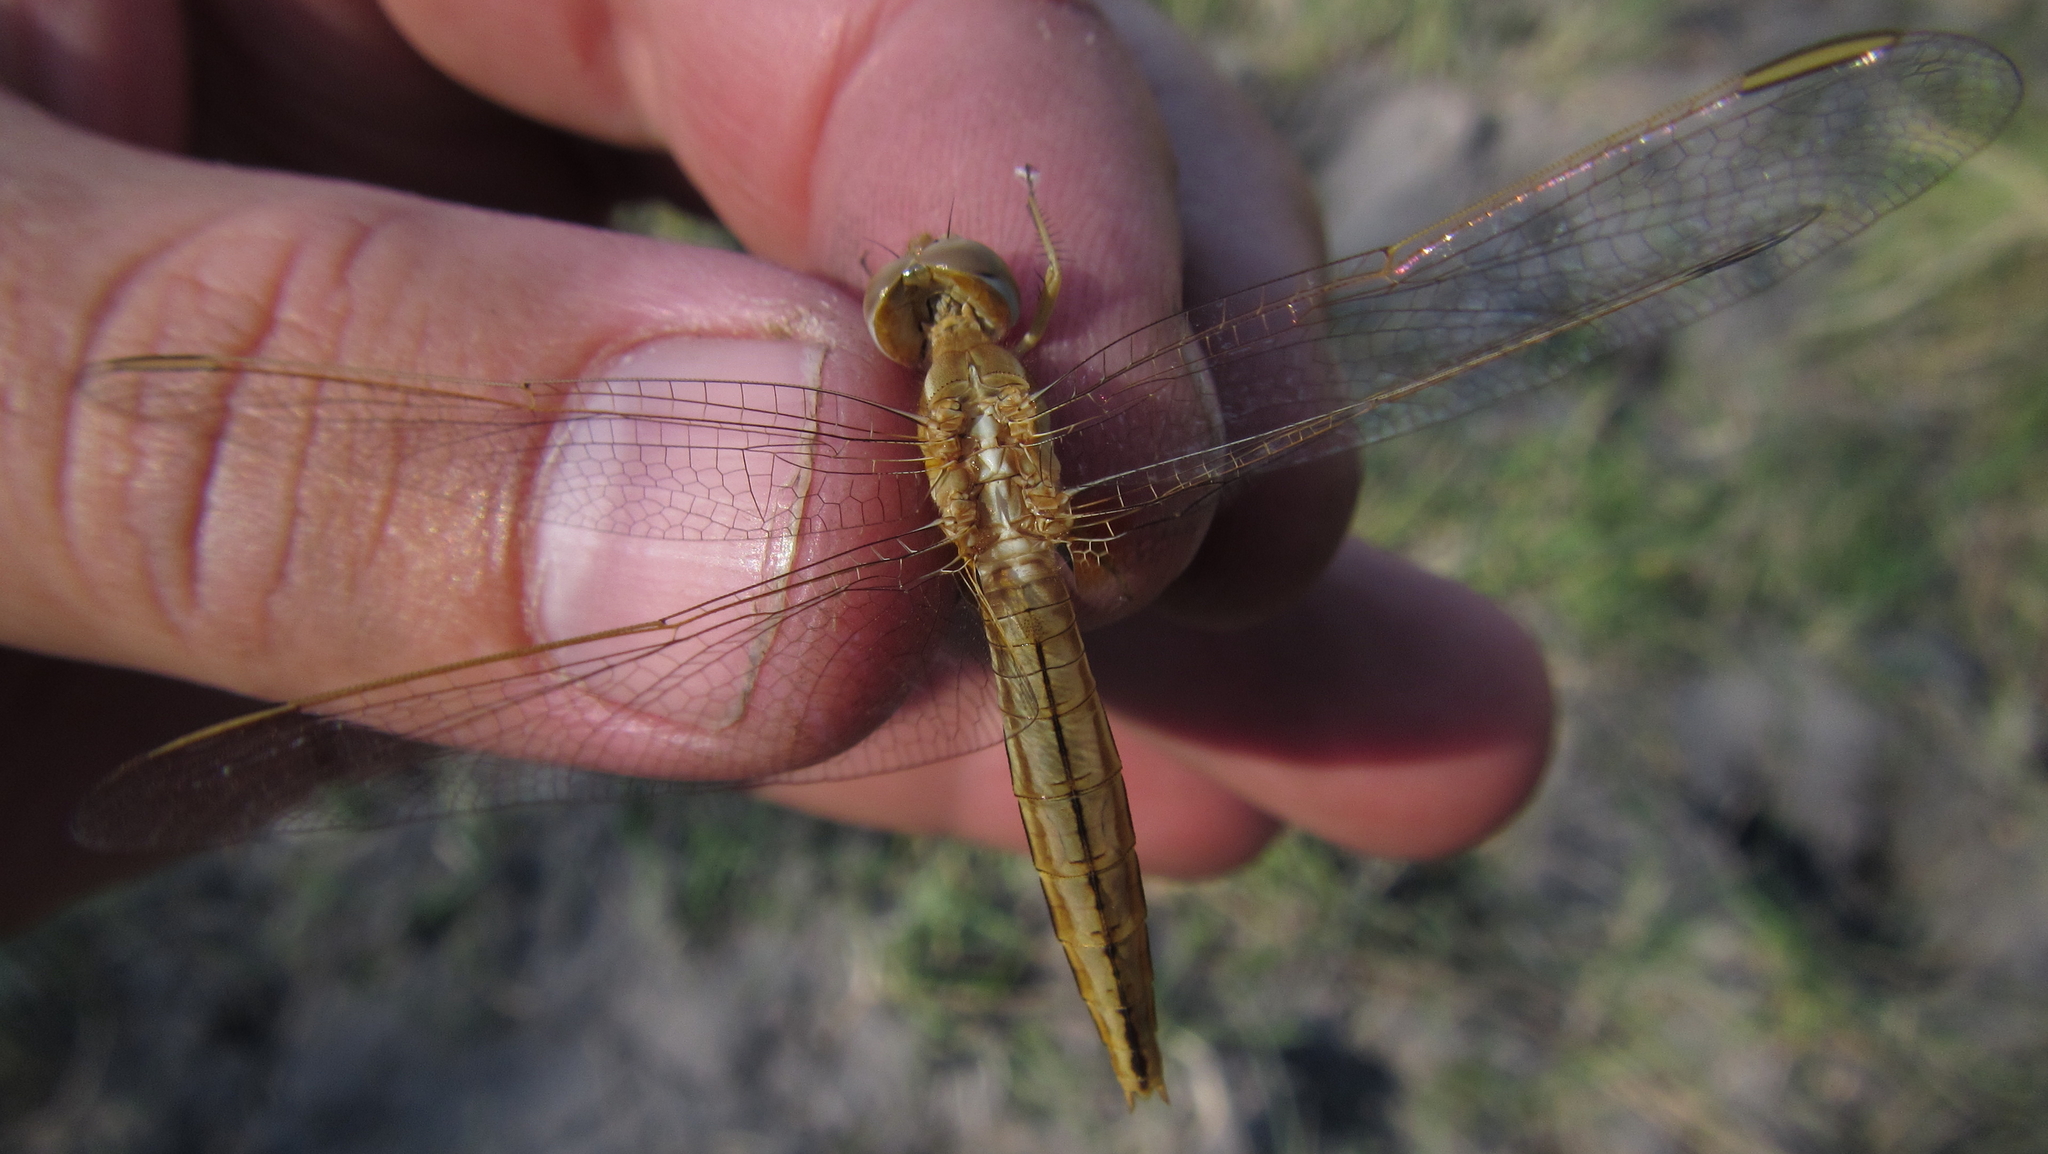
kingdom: Animalia
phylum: Arthropoda
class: Insecta
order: Odonata
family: Libellulidae
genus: Crocothemis
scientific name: Crocothemis erythraea
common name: Scarlet dragonfly
